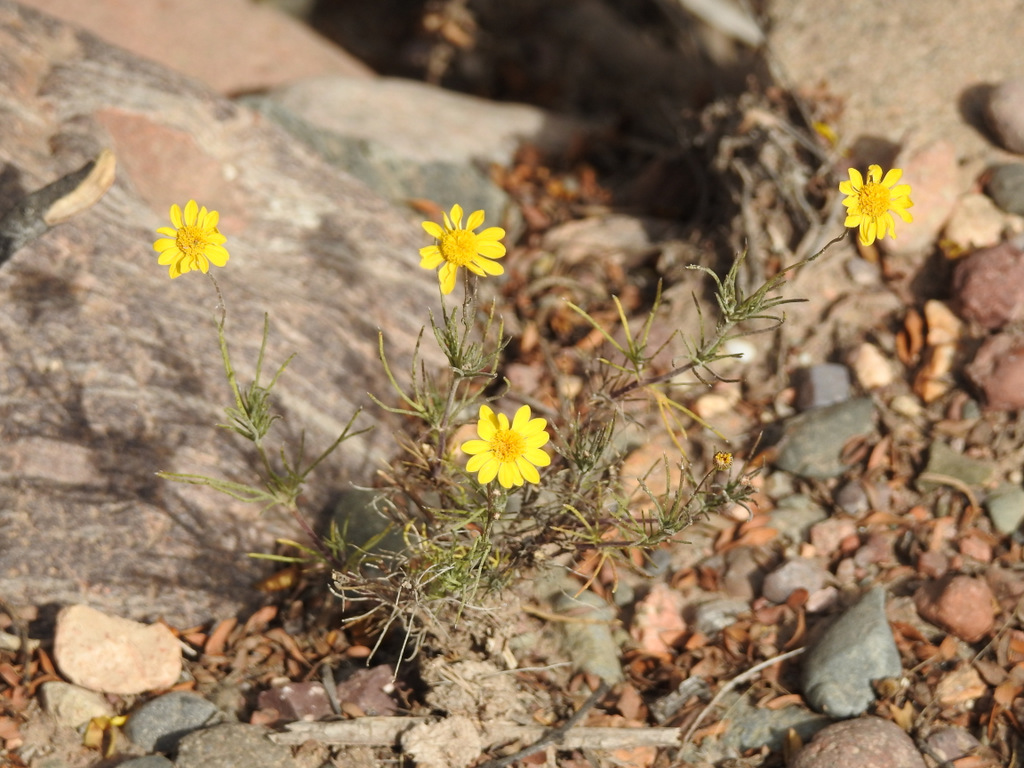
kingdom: Plantae
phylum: Tracheophyta
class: Magnoliopsida
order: Asterales
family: Asteraceae
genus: Thymophylla
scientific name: Thymophylla pentachaeta
